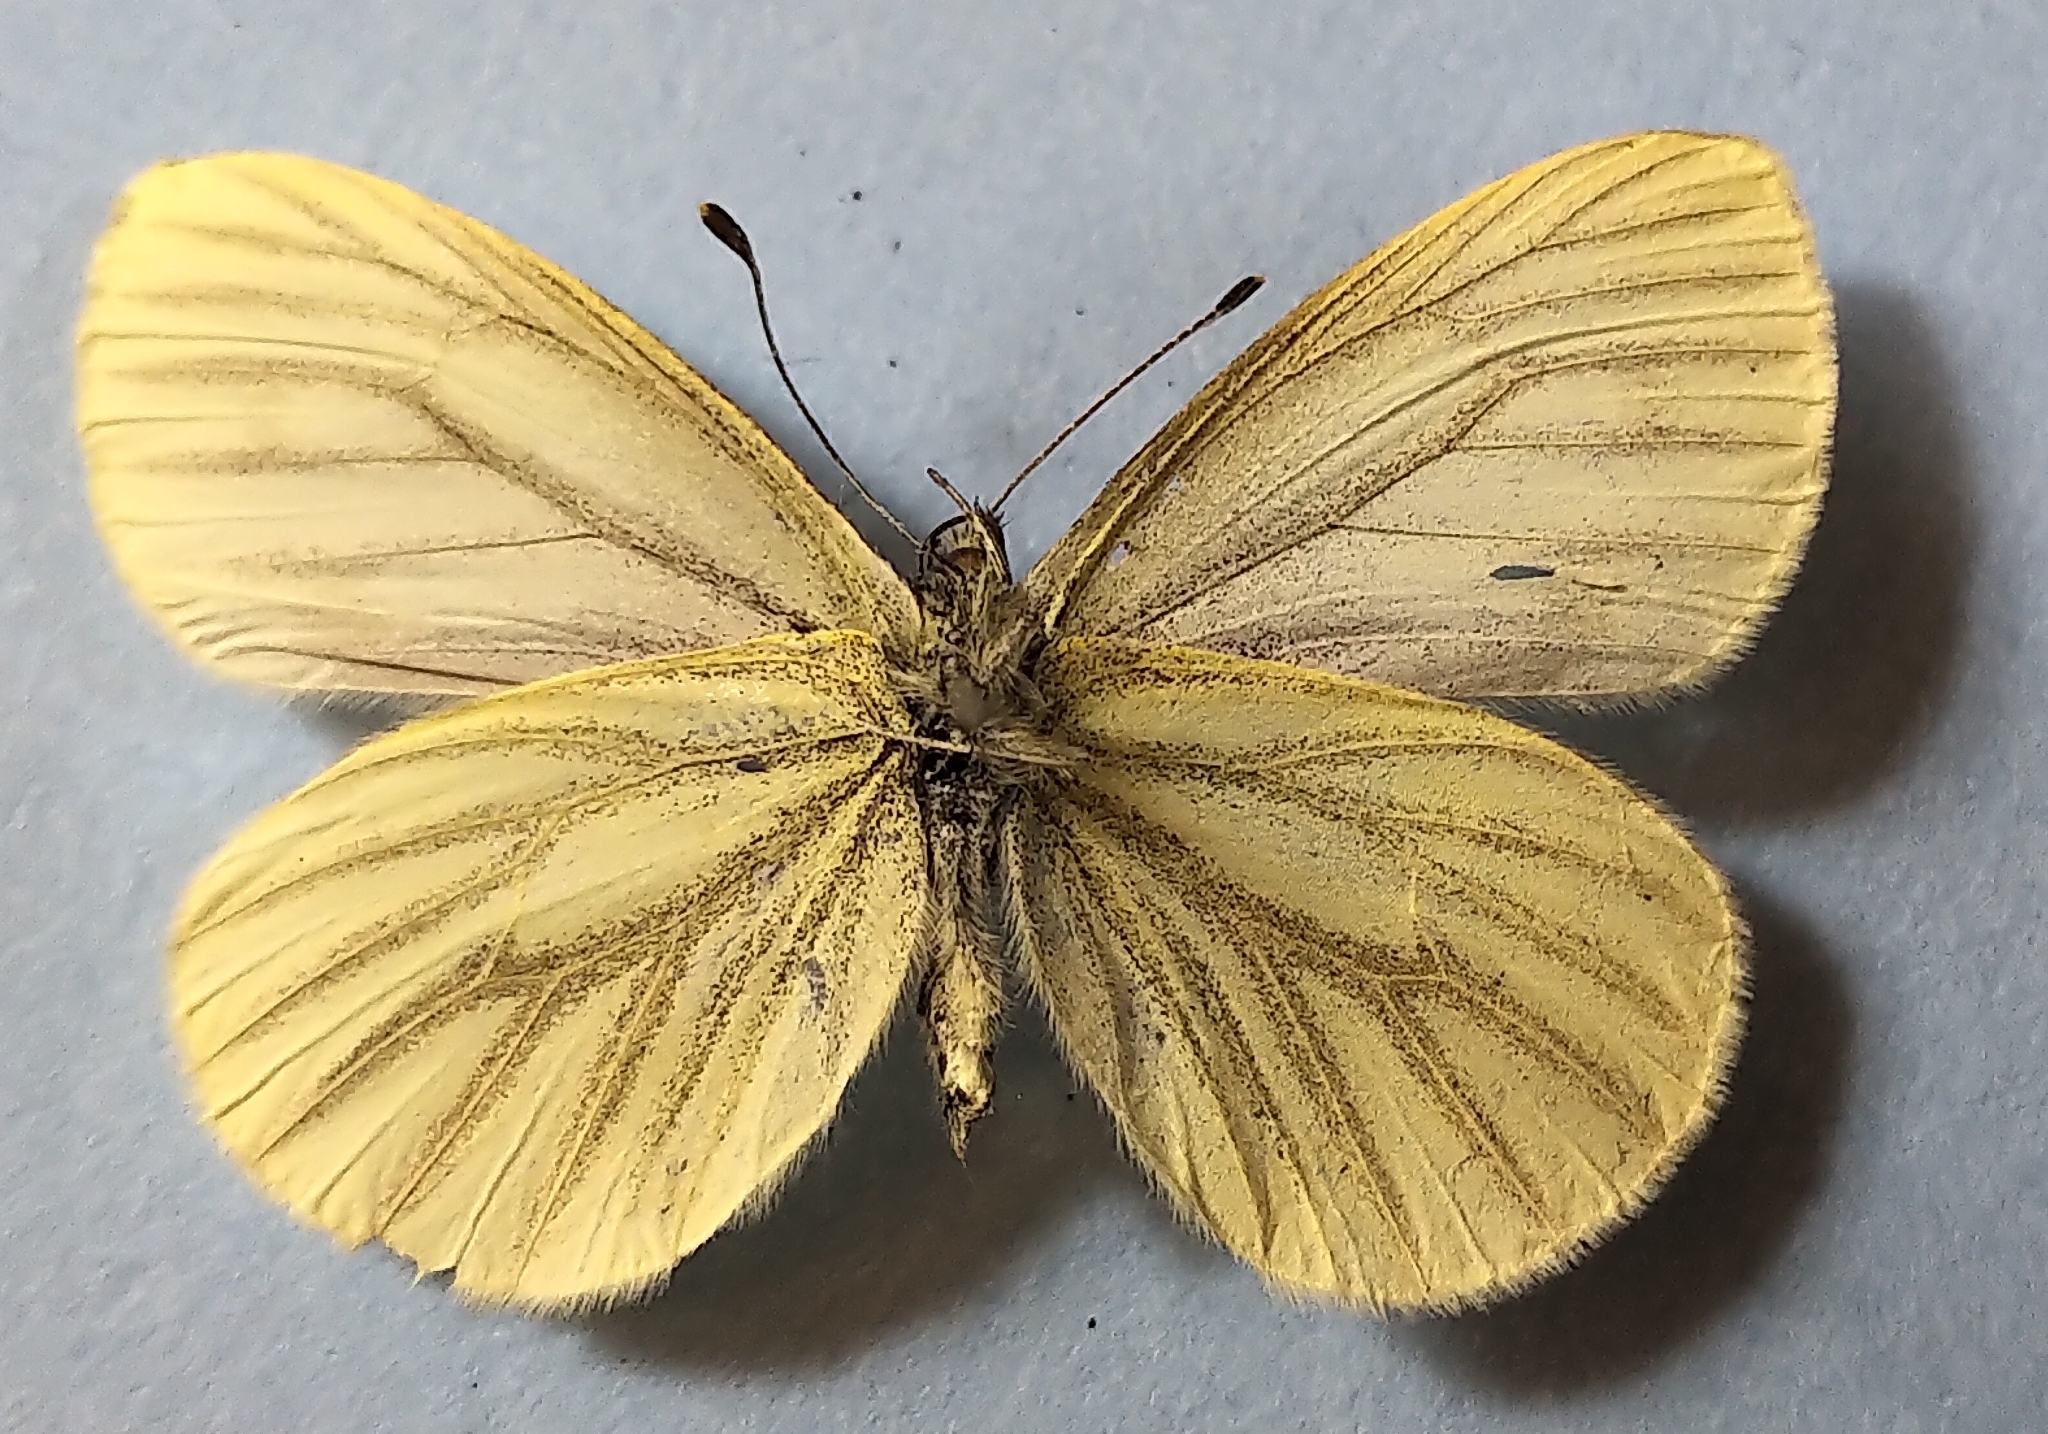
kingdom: Animalia
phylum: Arthropoda
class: Insecta
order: Lepidoptera
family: Pieridae
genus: Pieris
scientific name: Pieris marginalis
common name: Margined white
